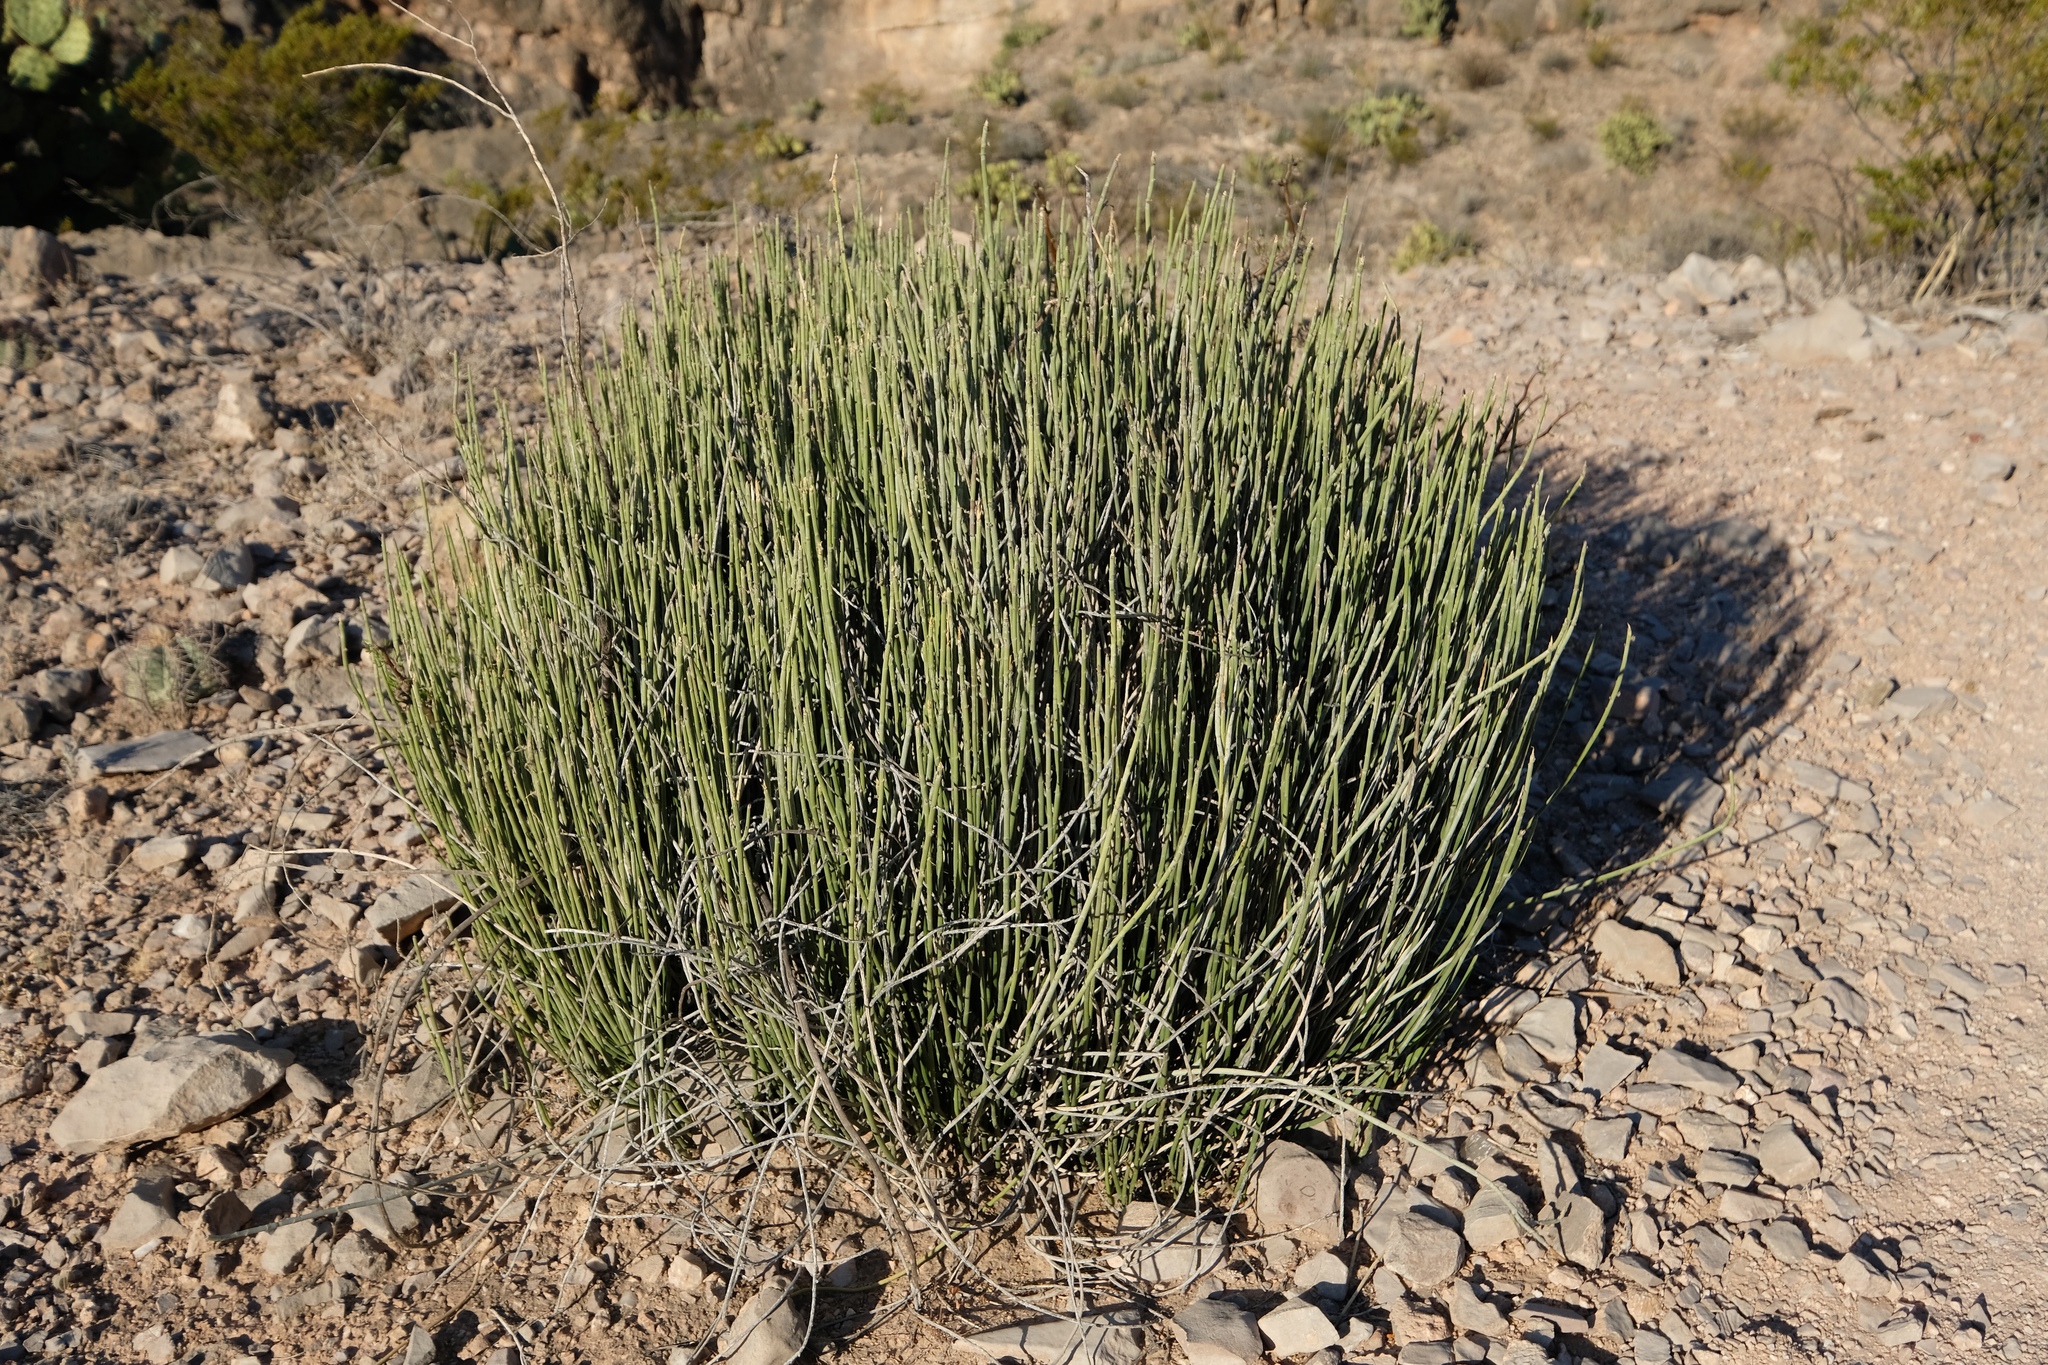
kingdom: Plantae
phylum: Tracheophyta
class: Magnoliopsida
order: Malpighiales
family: Euphorbiaceae
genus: Euphorbia
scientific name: Euphorbia antisyphilitica
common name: Candelilla
